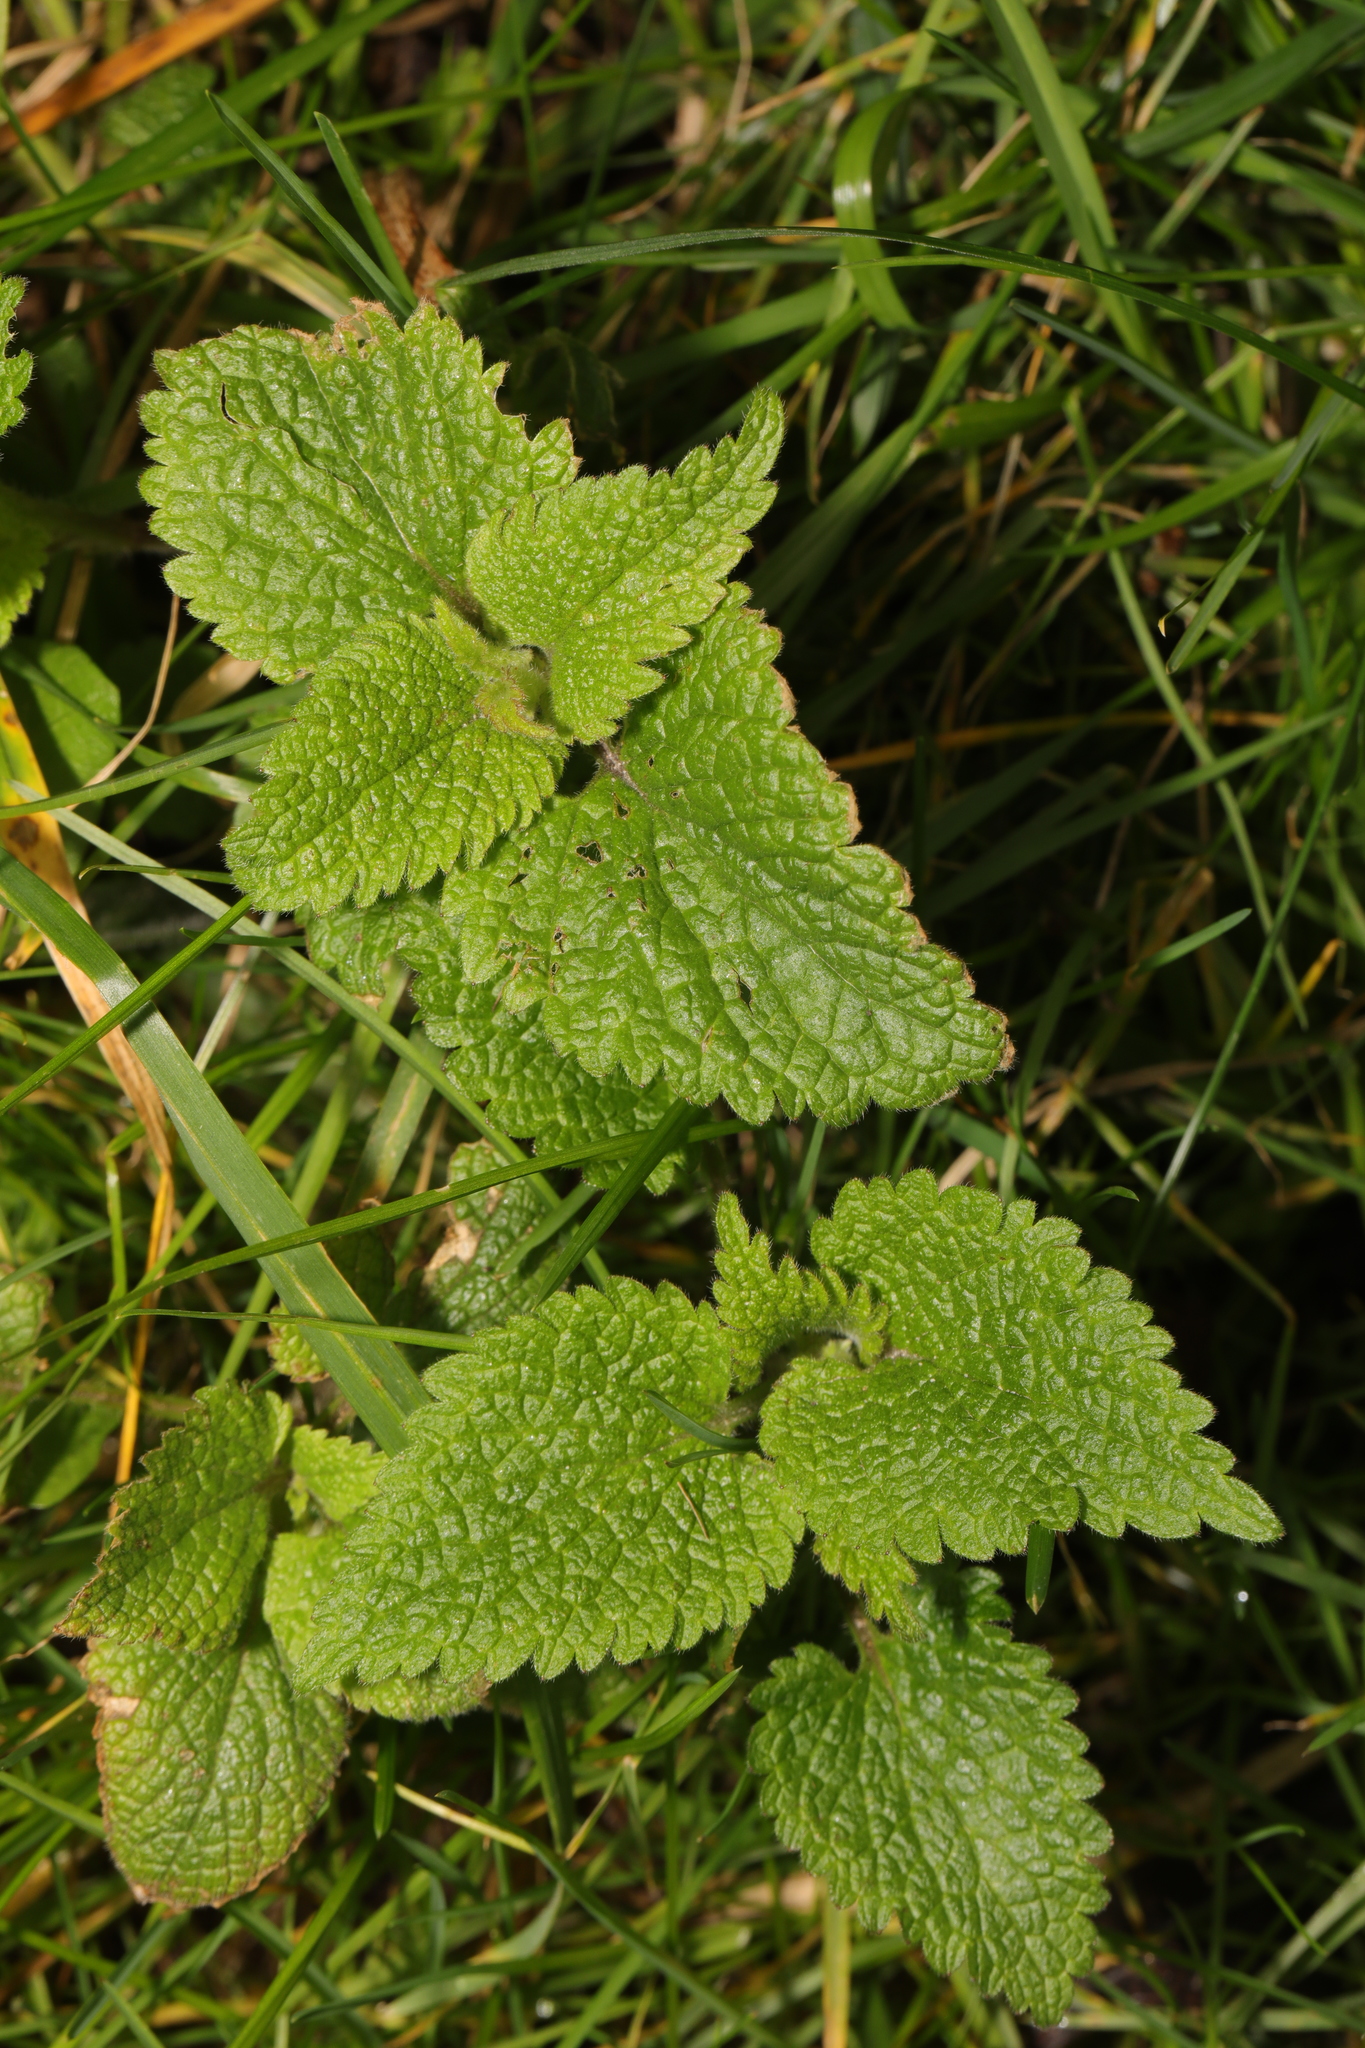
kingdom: Plantae
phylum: Tracheophyta
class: Magnoliopsida
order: Lamiales
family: Lamiaceae
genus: Lamium
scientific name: Lamium album
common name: White dead-nettle
